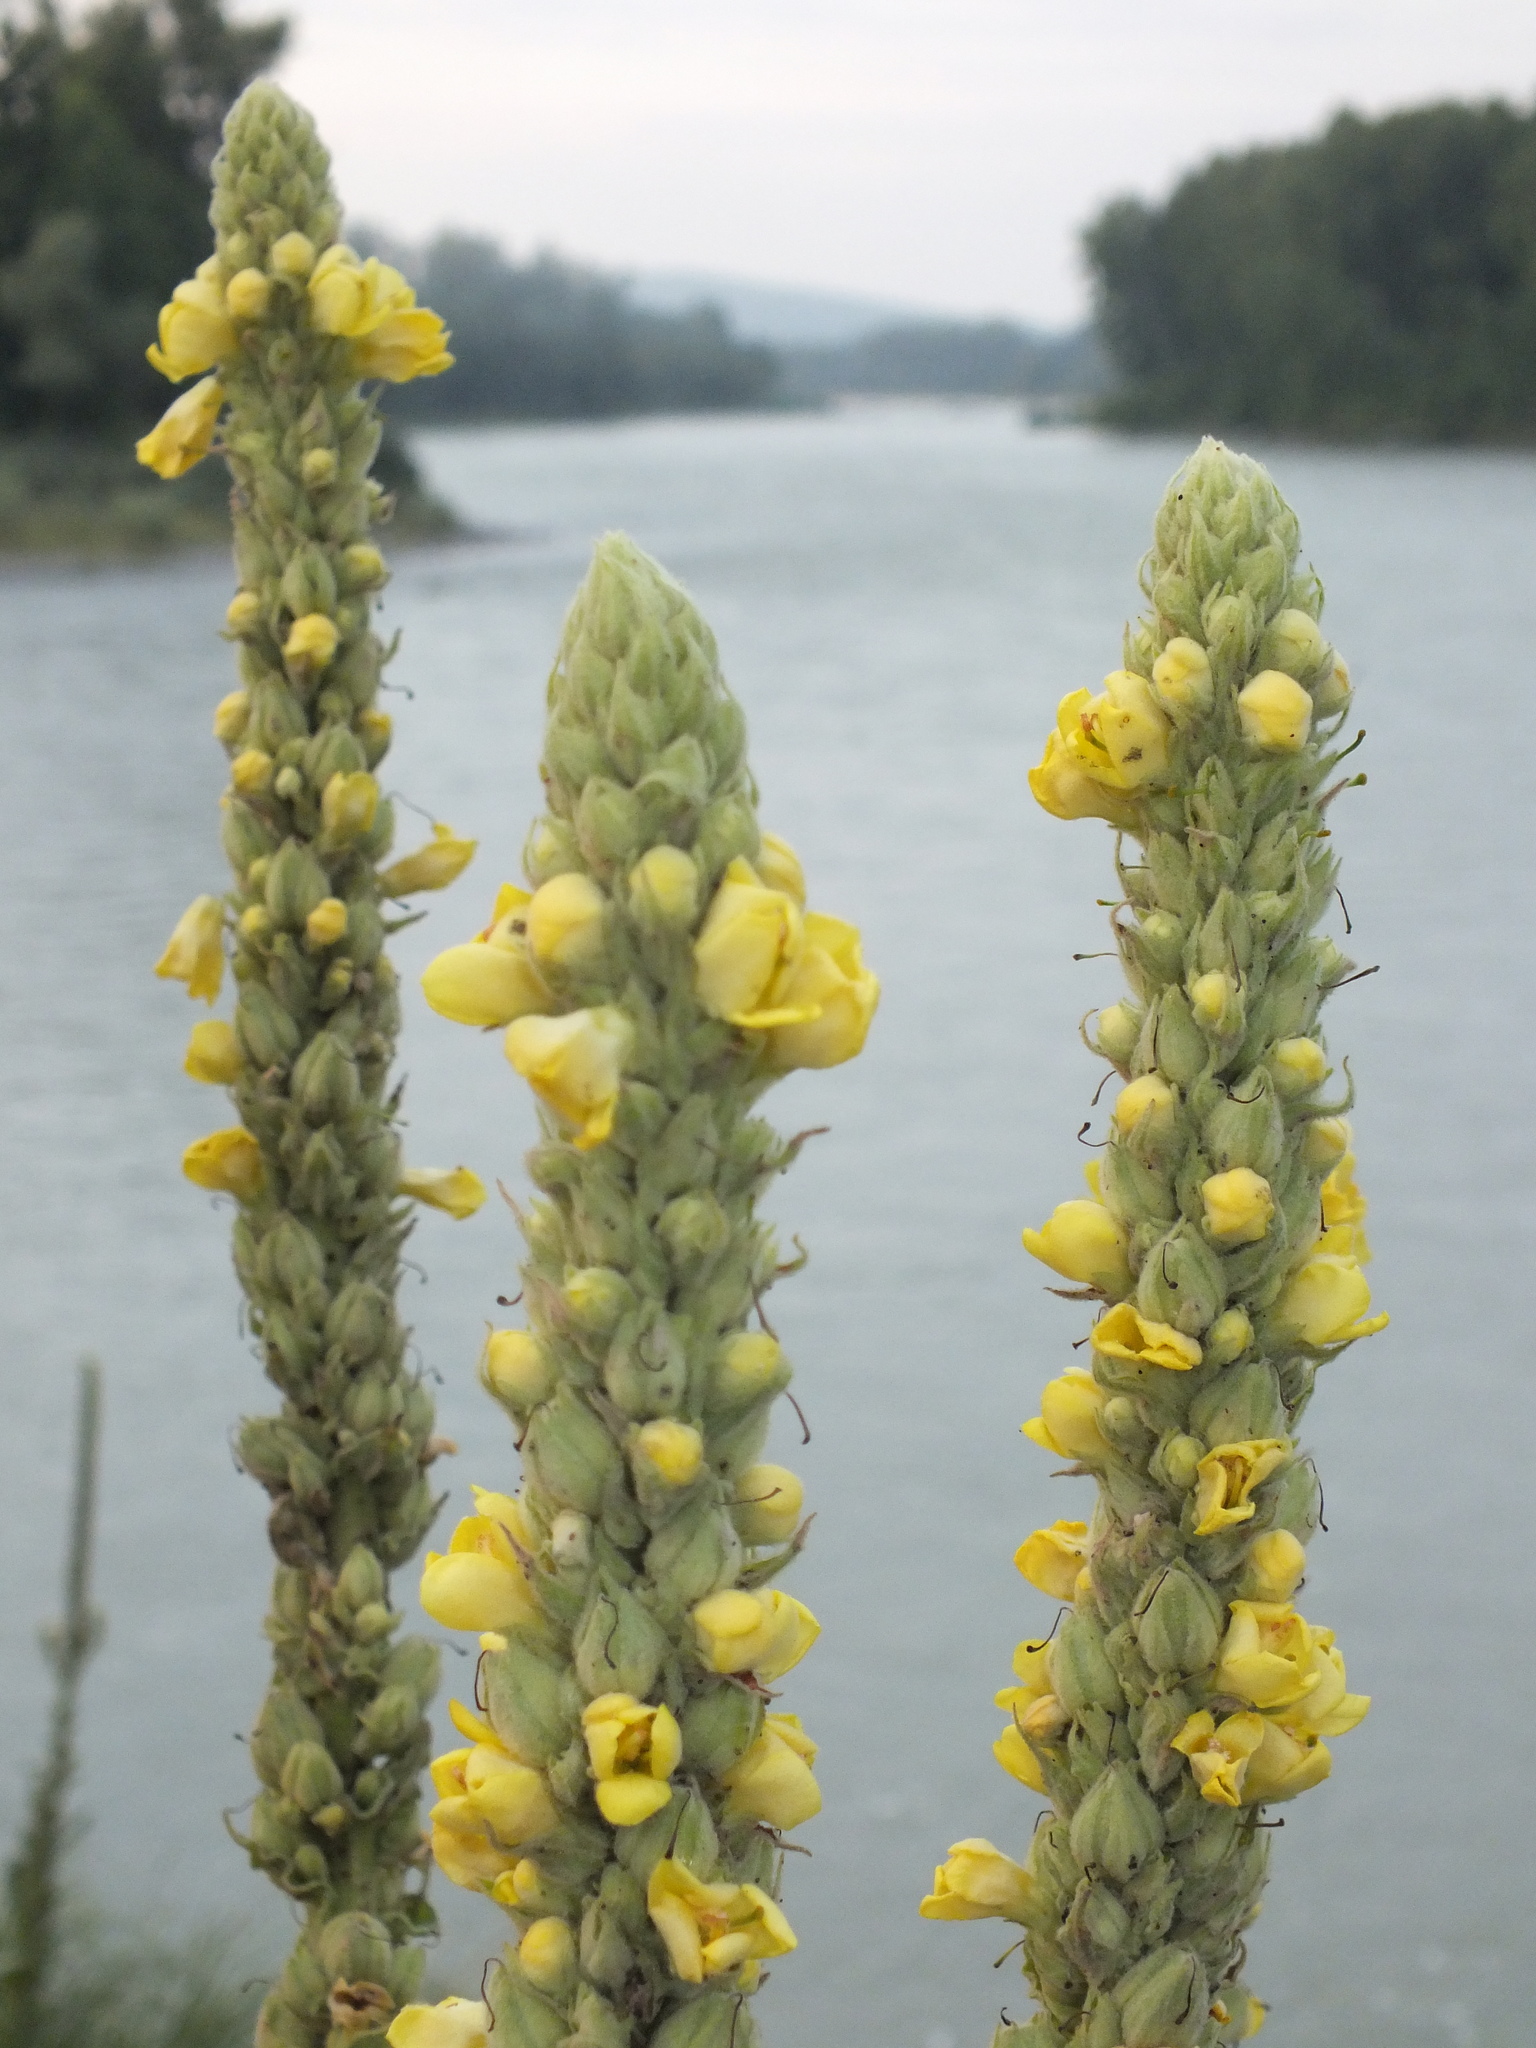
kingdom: Plantae
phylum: Tracheophyta
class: Magnoliopsida
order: Lamiales
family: Scrophulariaceae
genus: Verbascum
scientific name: Verbascum thapsus
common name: Common mullein
